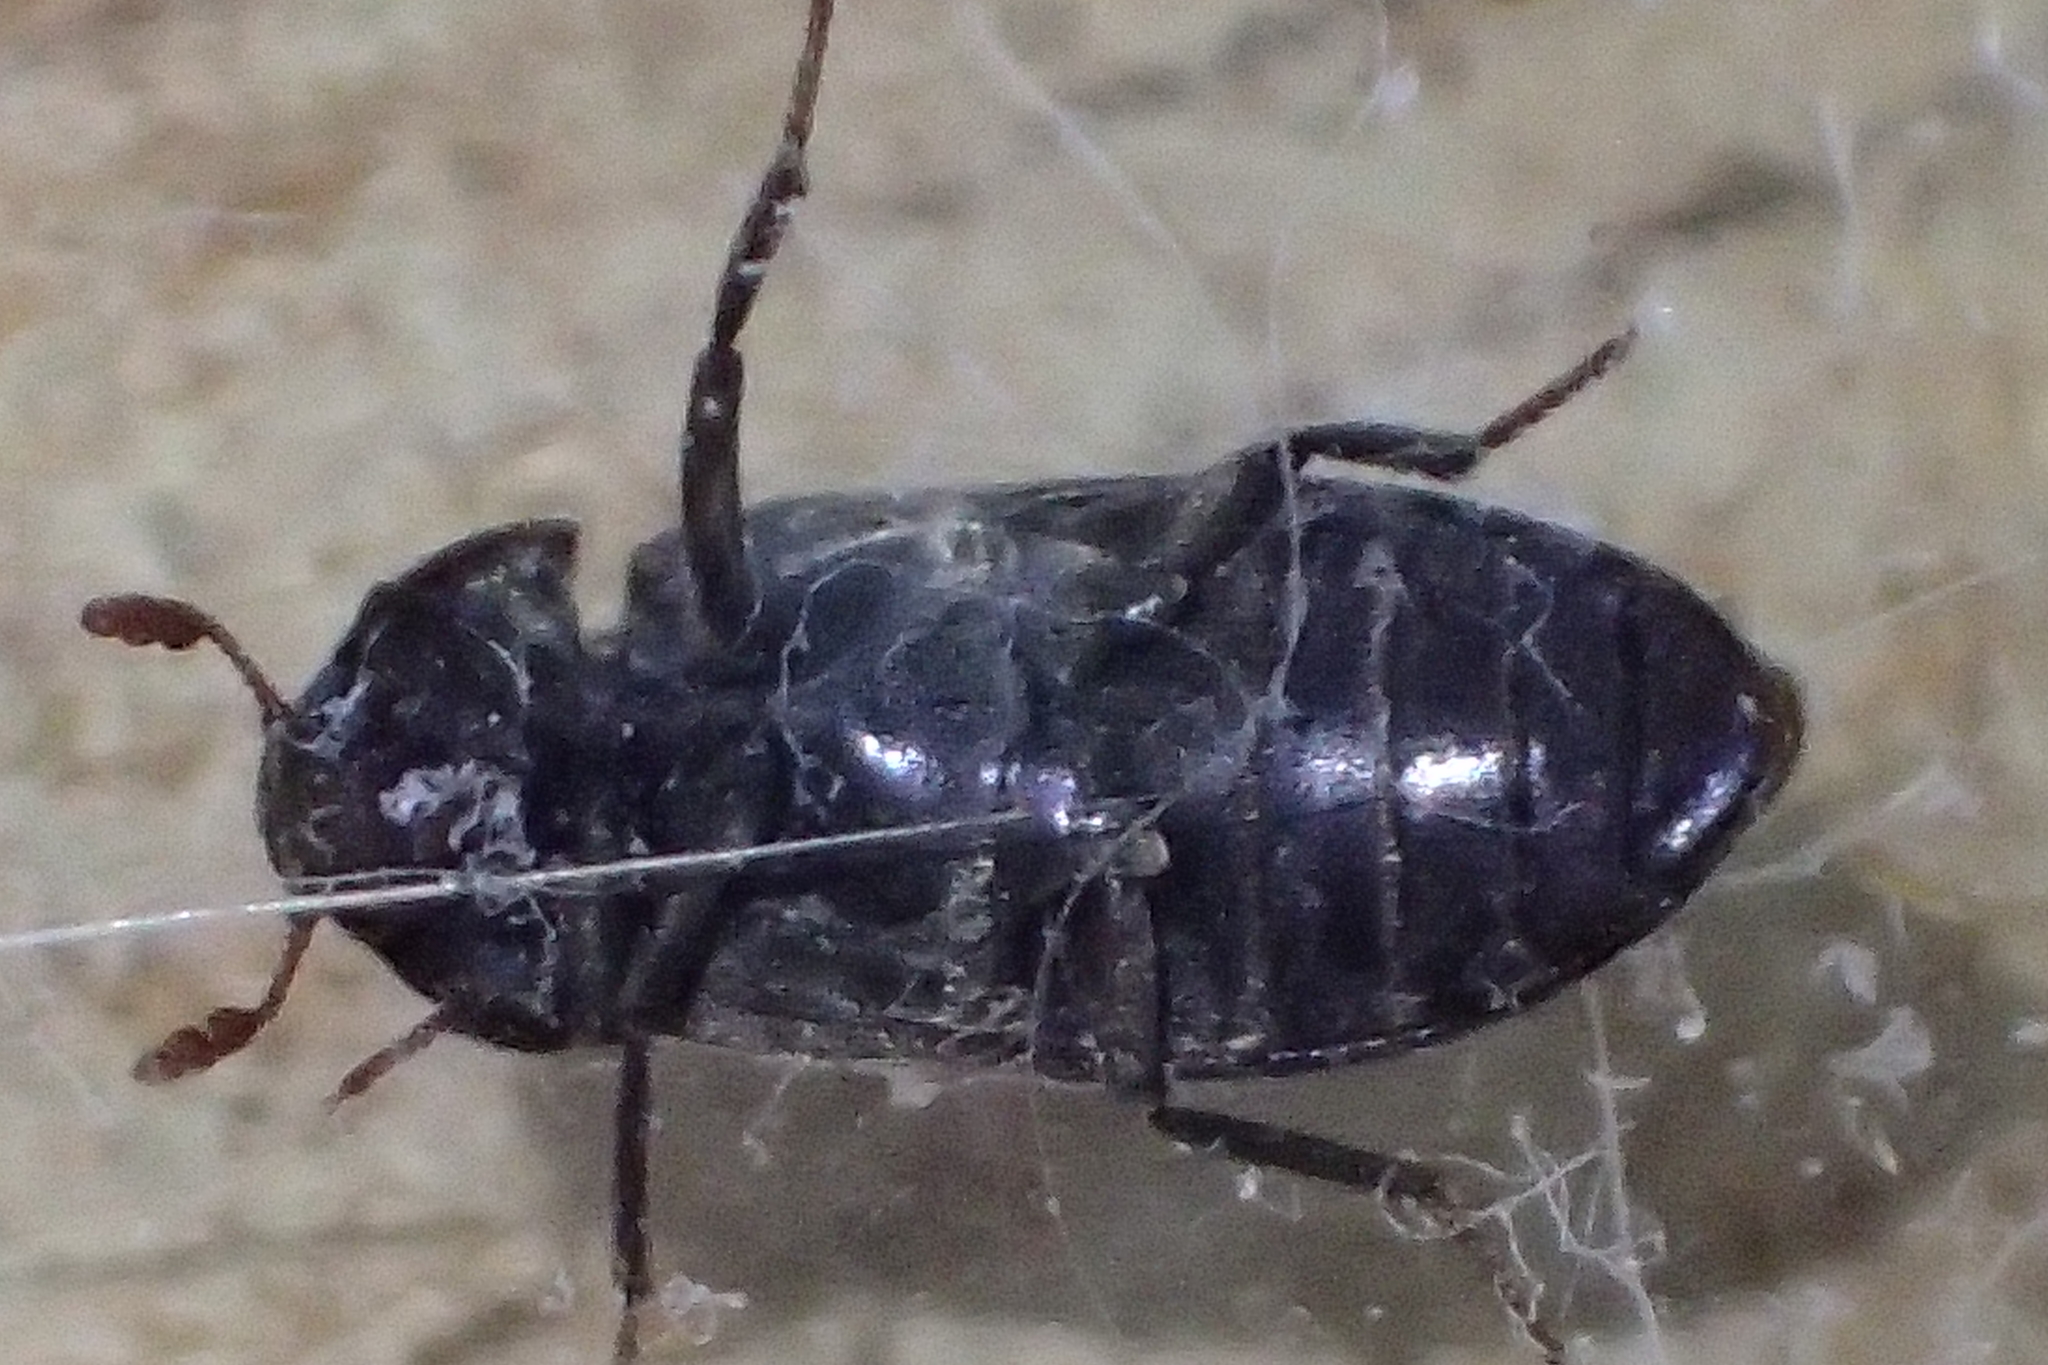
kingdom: Animalia
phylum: Arthropoda
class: Insecta
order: Coleoptera
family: Dermestidae
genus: Dermestes
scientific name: Dermestes lardarius
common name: Larder beetle
